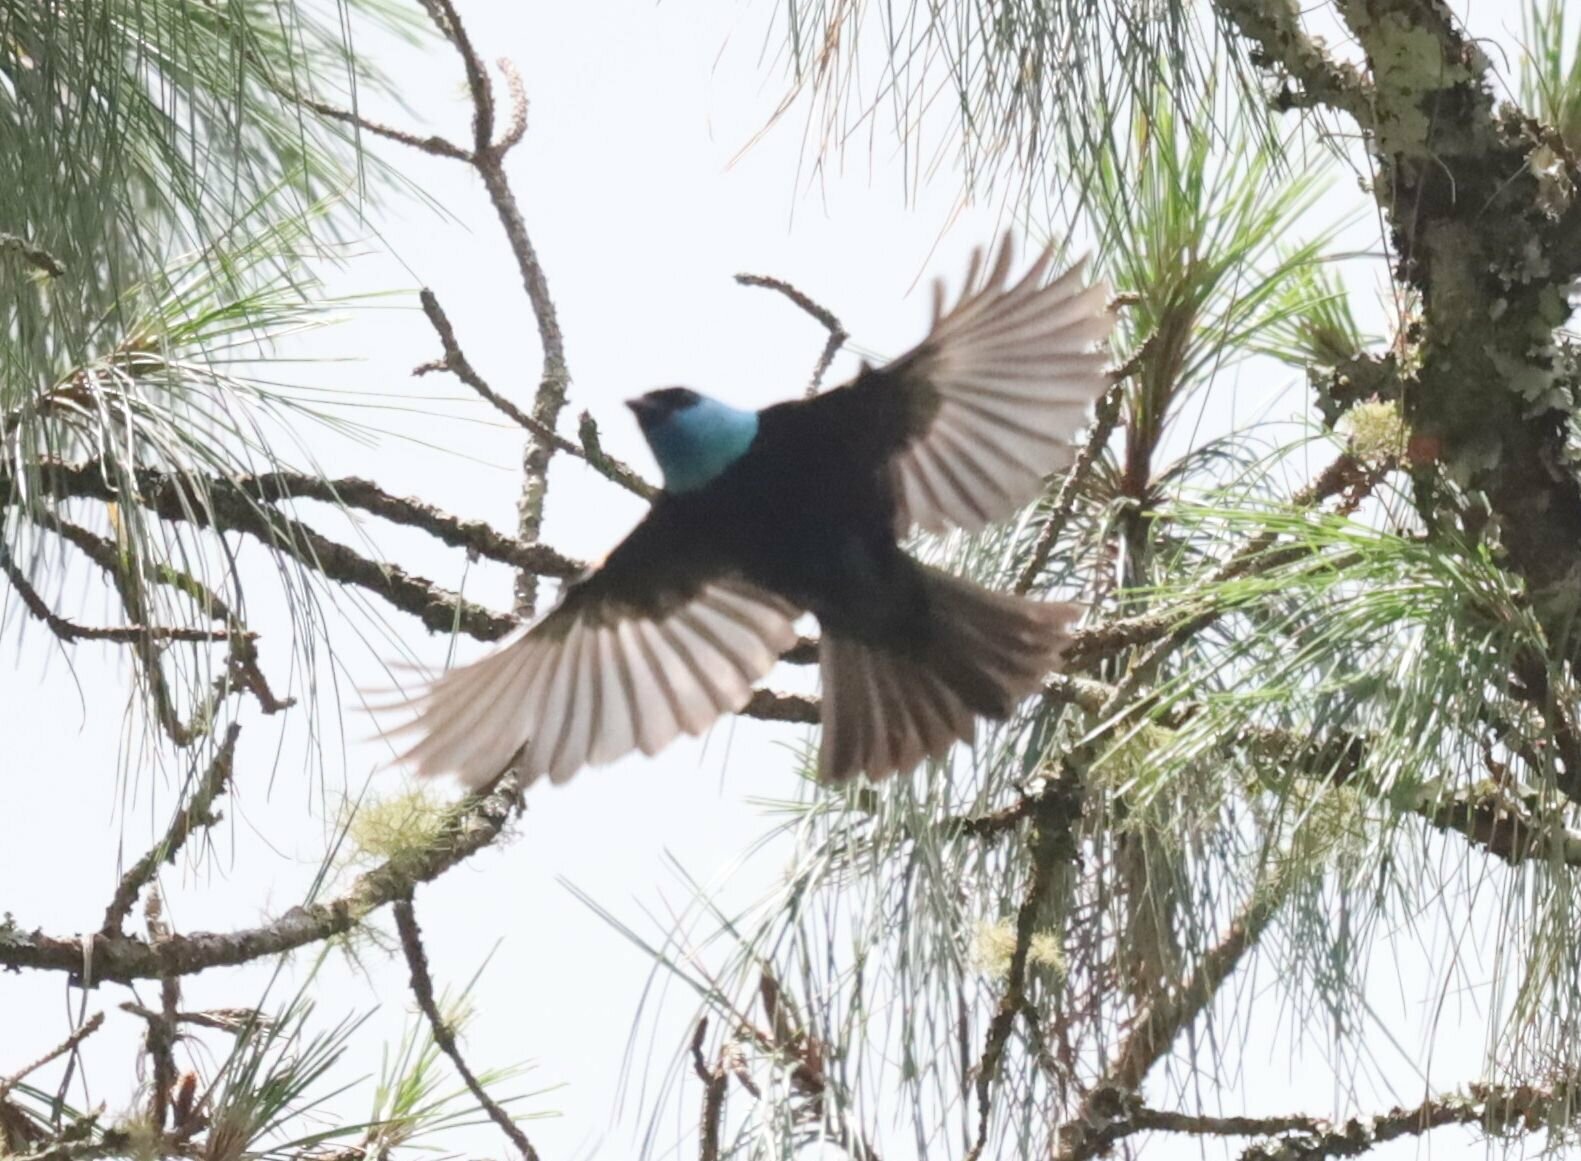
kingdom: Animalia
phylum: Chordata
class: Aves
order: Passeriformes
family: Thraupidae
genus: Stilpnia
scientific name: Stilpnia cyanicollis
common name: Blue-necked tanager
